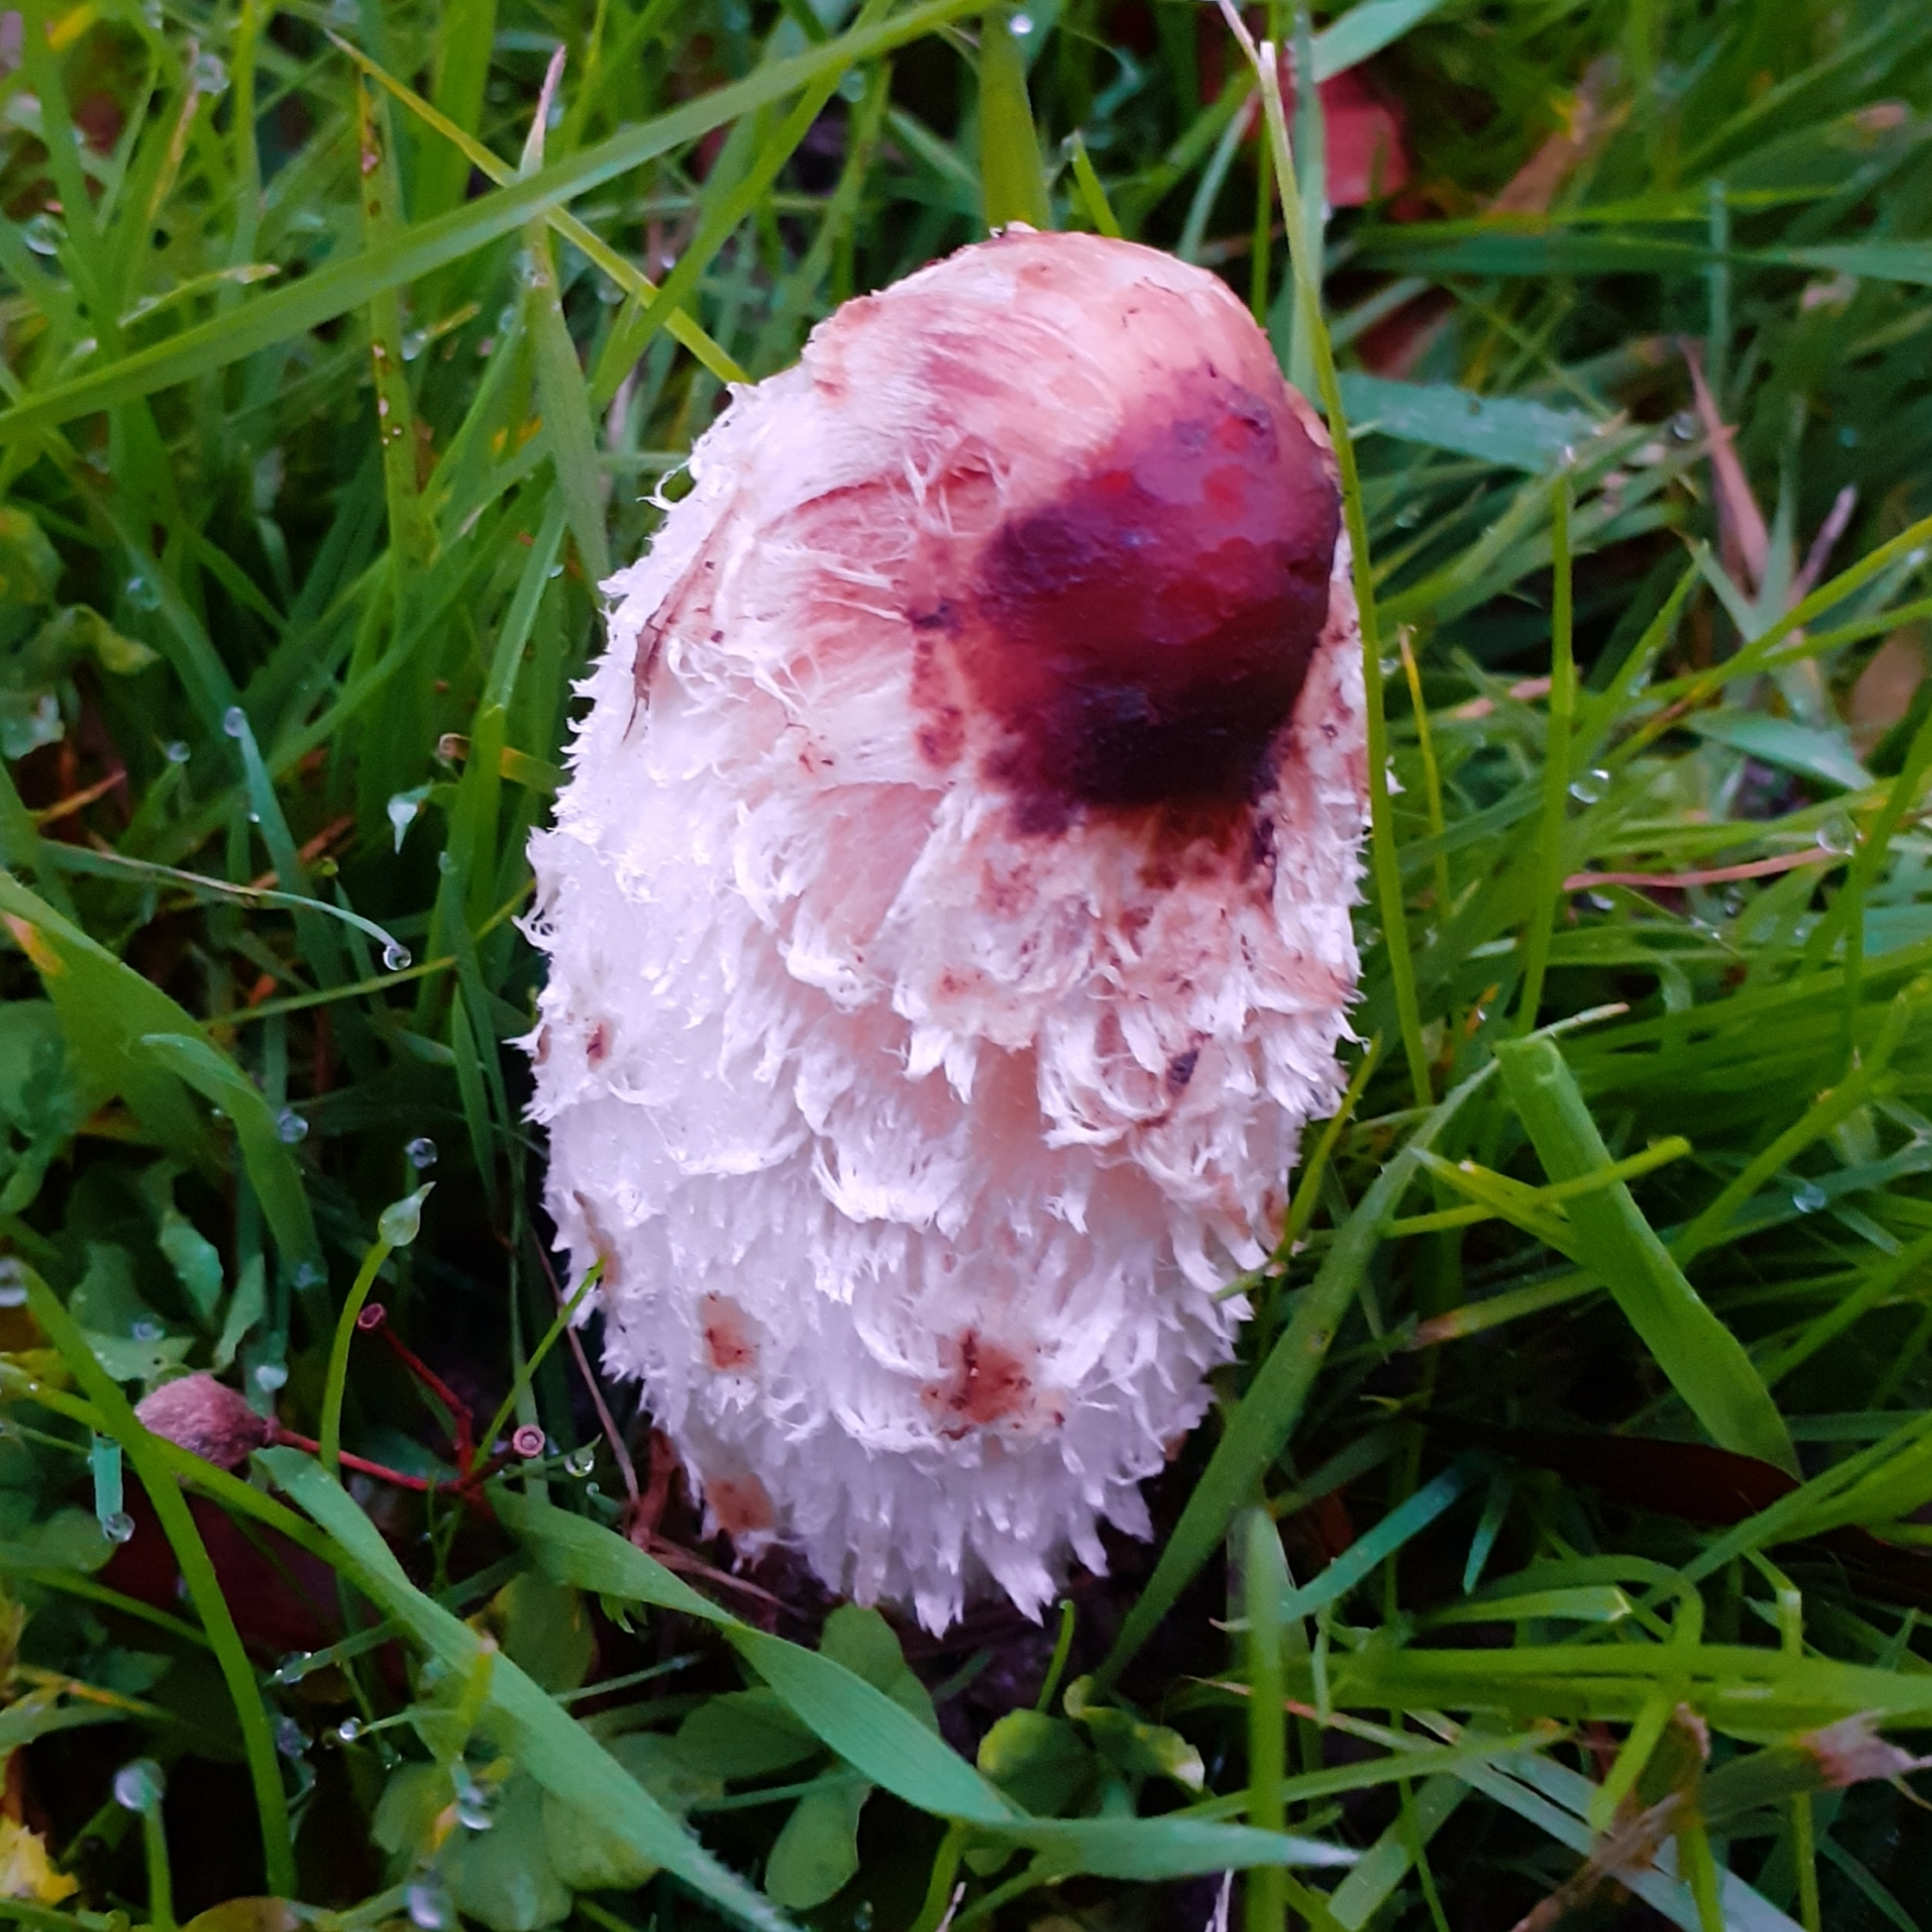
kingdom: Fungi
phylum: Basidiomycota
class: Agaricomycetes
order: Agaricales
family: Agaricaceae
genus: Coprinus
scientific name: Coprinus comatus
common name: Lawyer's wig
